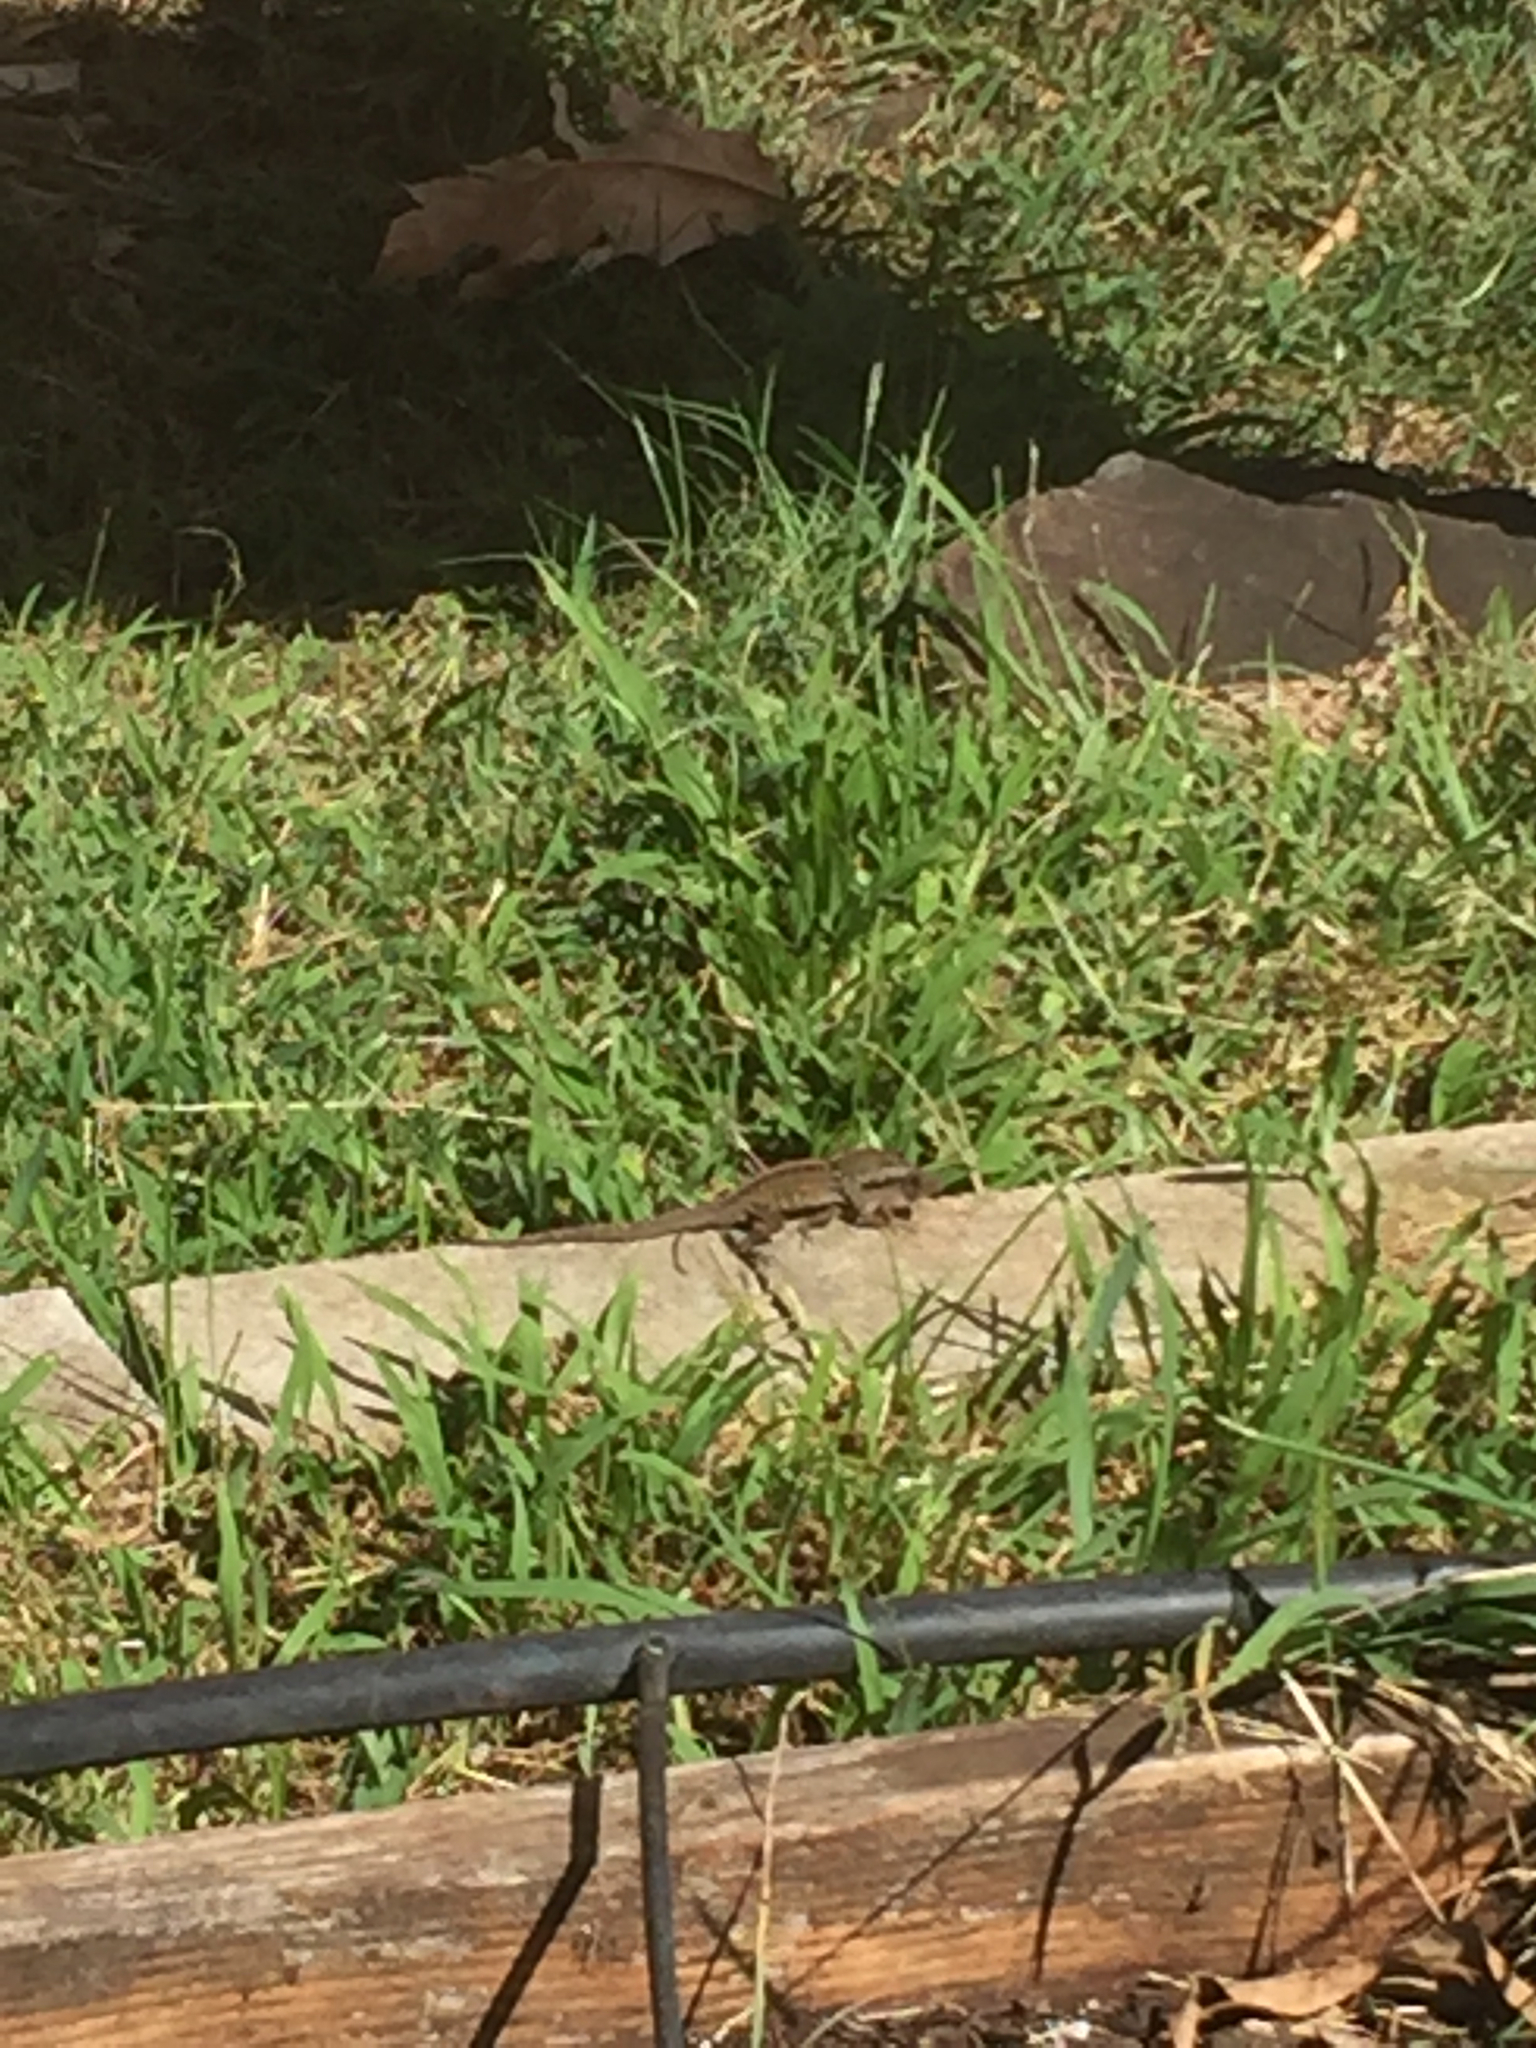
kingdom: Animalia
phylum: Chordata
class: Squamata
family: Dactyloidae
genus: Anolis
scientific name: Anolis sagrei
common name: Brown anole
